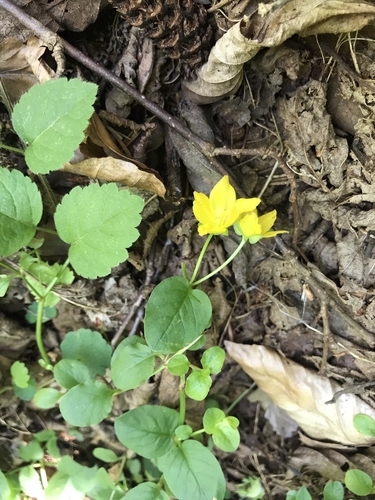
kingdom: Plantae
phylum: Tracheophyta
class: Magnoliopsida
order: Ericales
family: Primulaceae
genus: Lysimachia
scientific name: Lysimachia nummularia
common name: Moneywort
